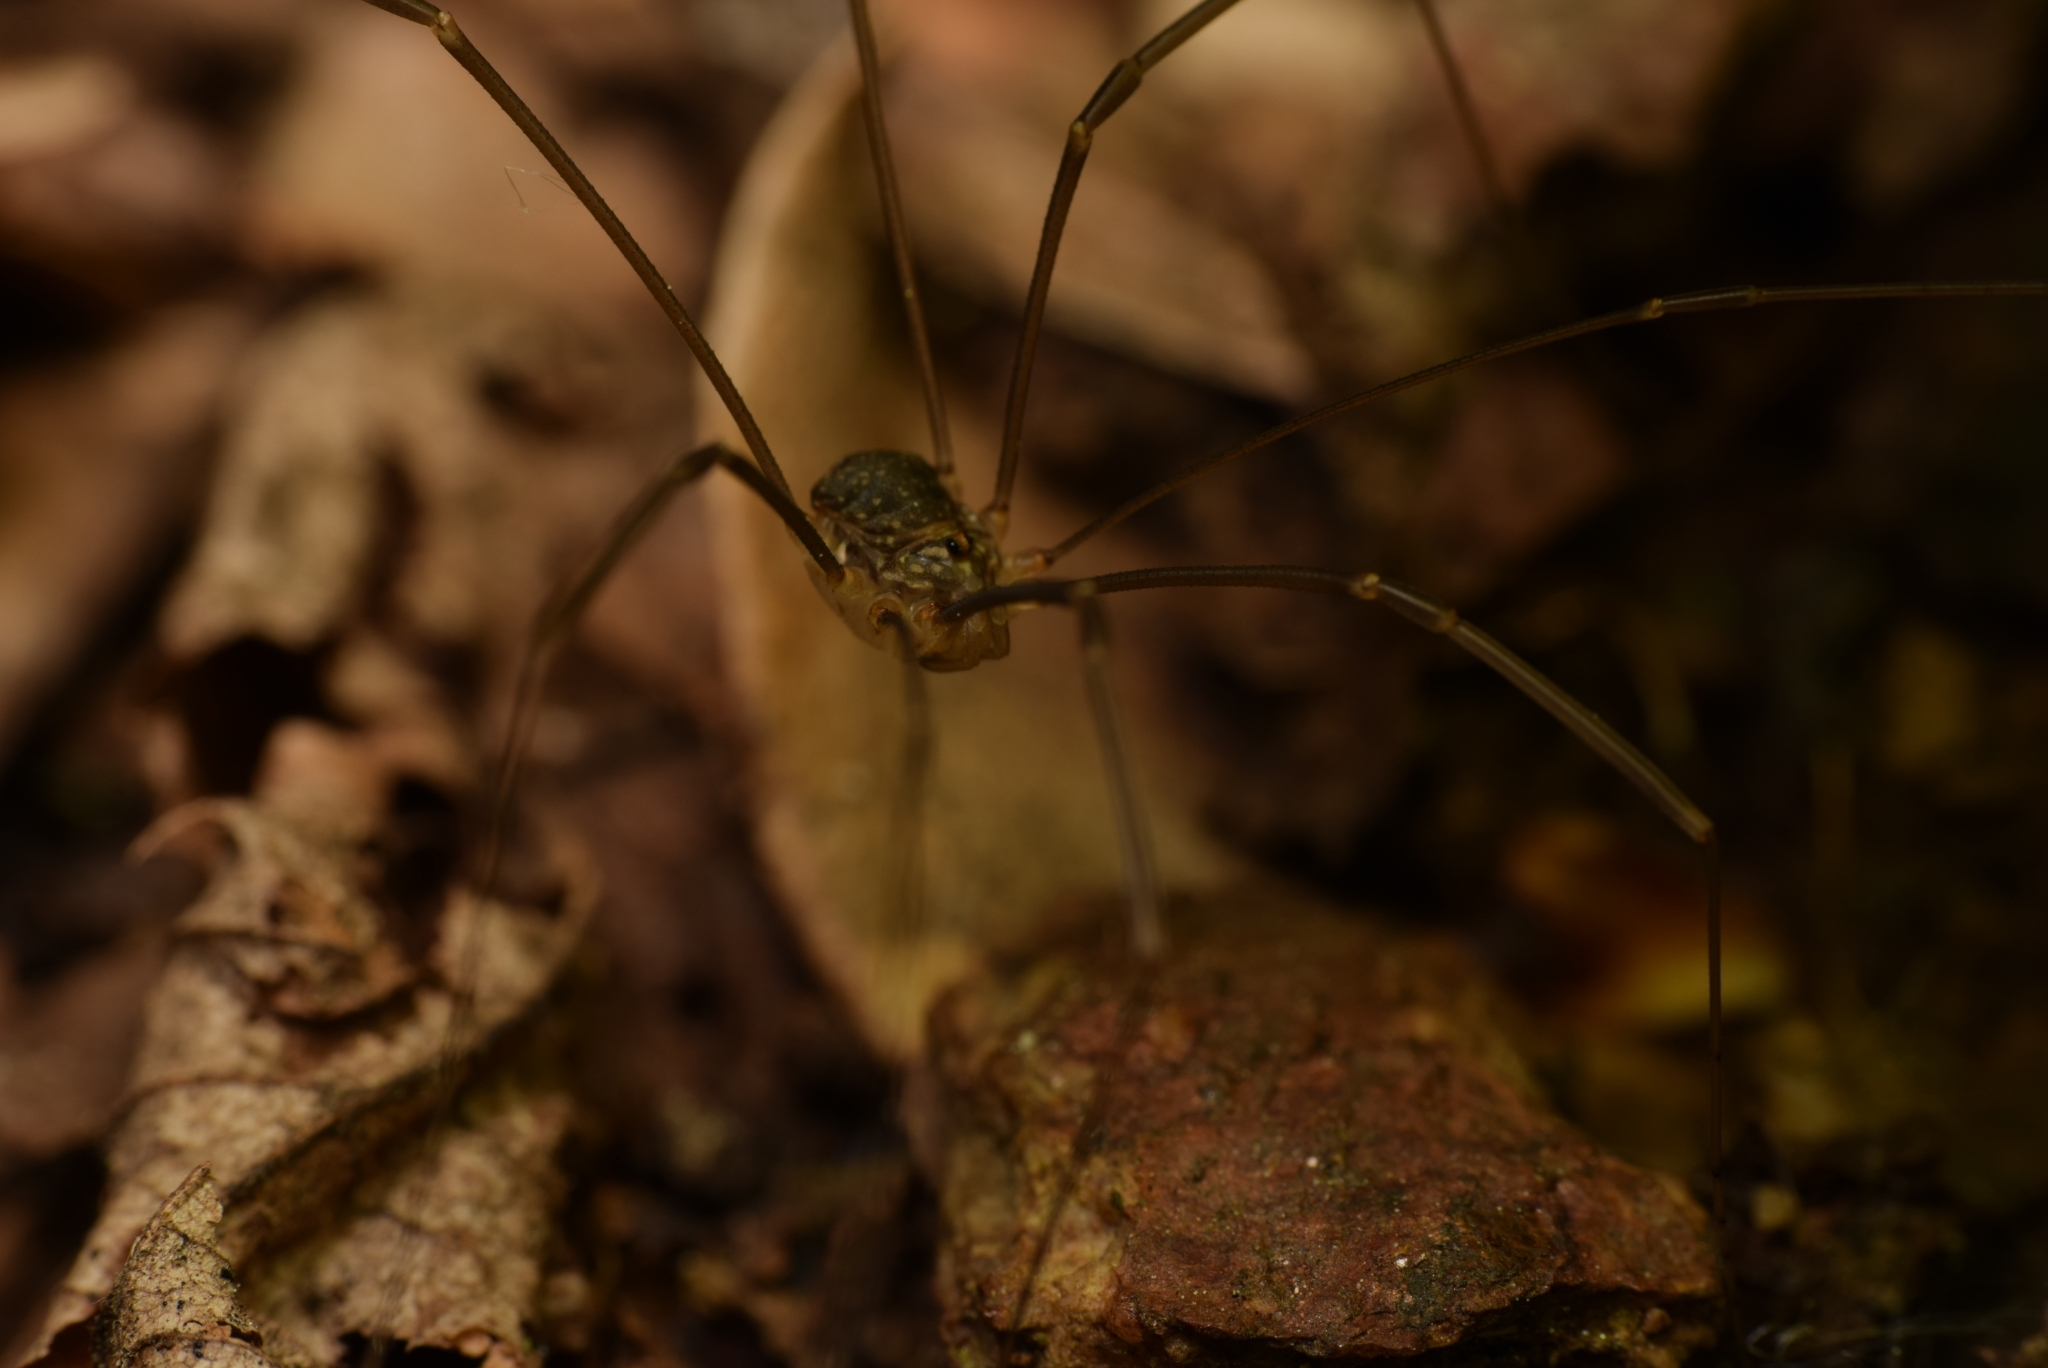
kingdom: Animalia
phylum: Arthropoda
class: Arachnida
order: Opiliones
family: Sclerosomatidae
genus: Nelima
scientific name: Nelima gothica
